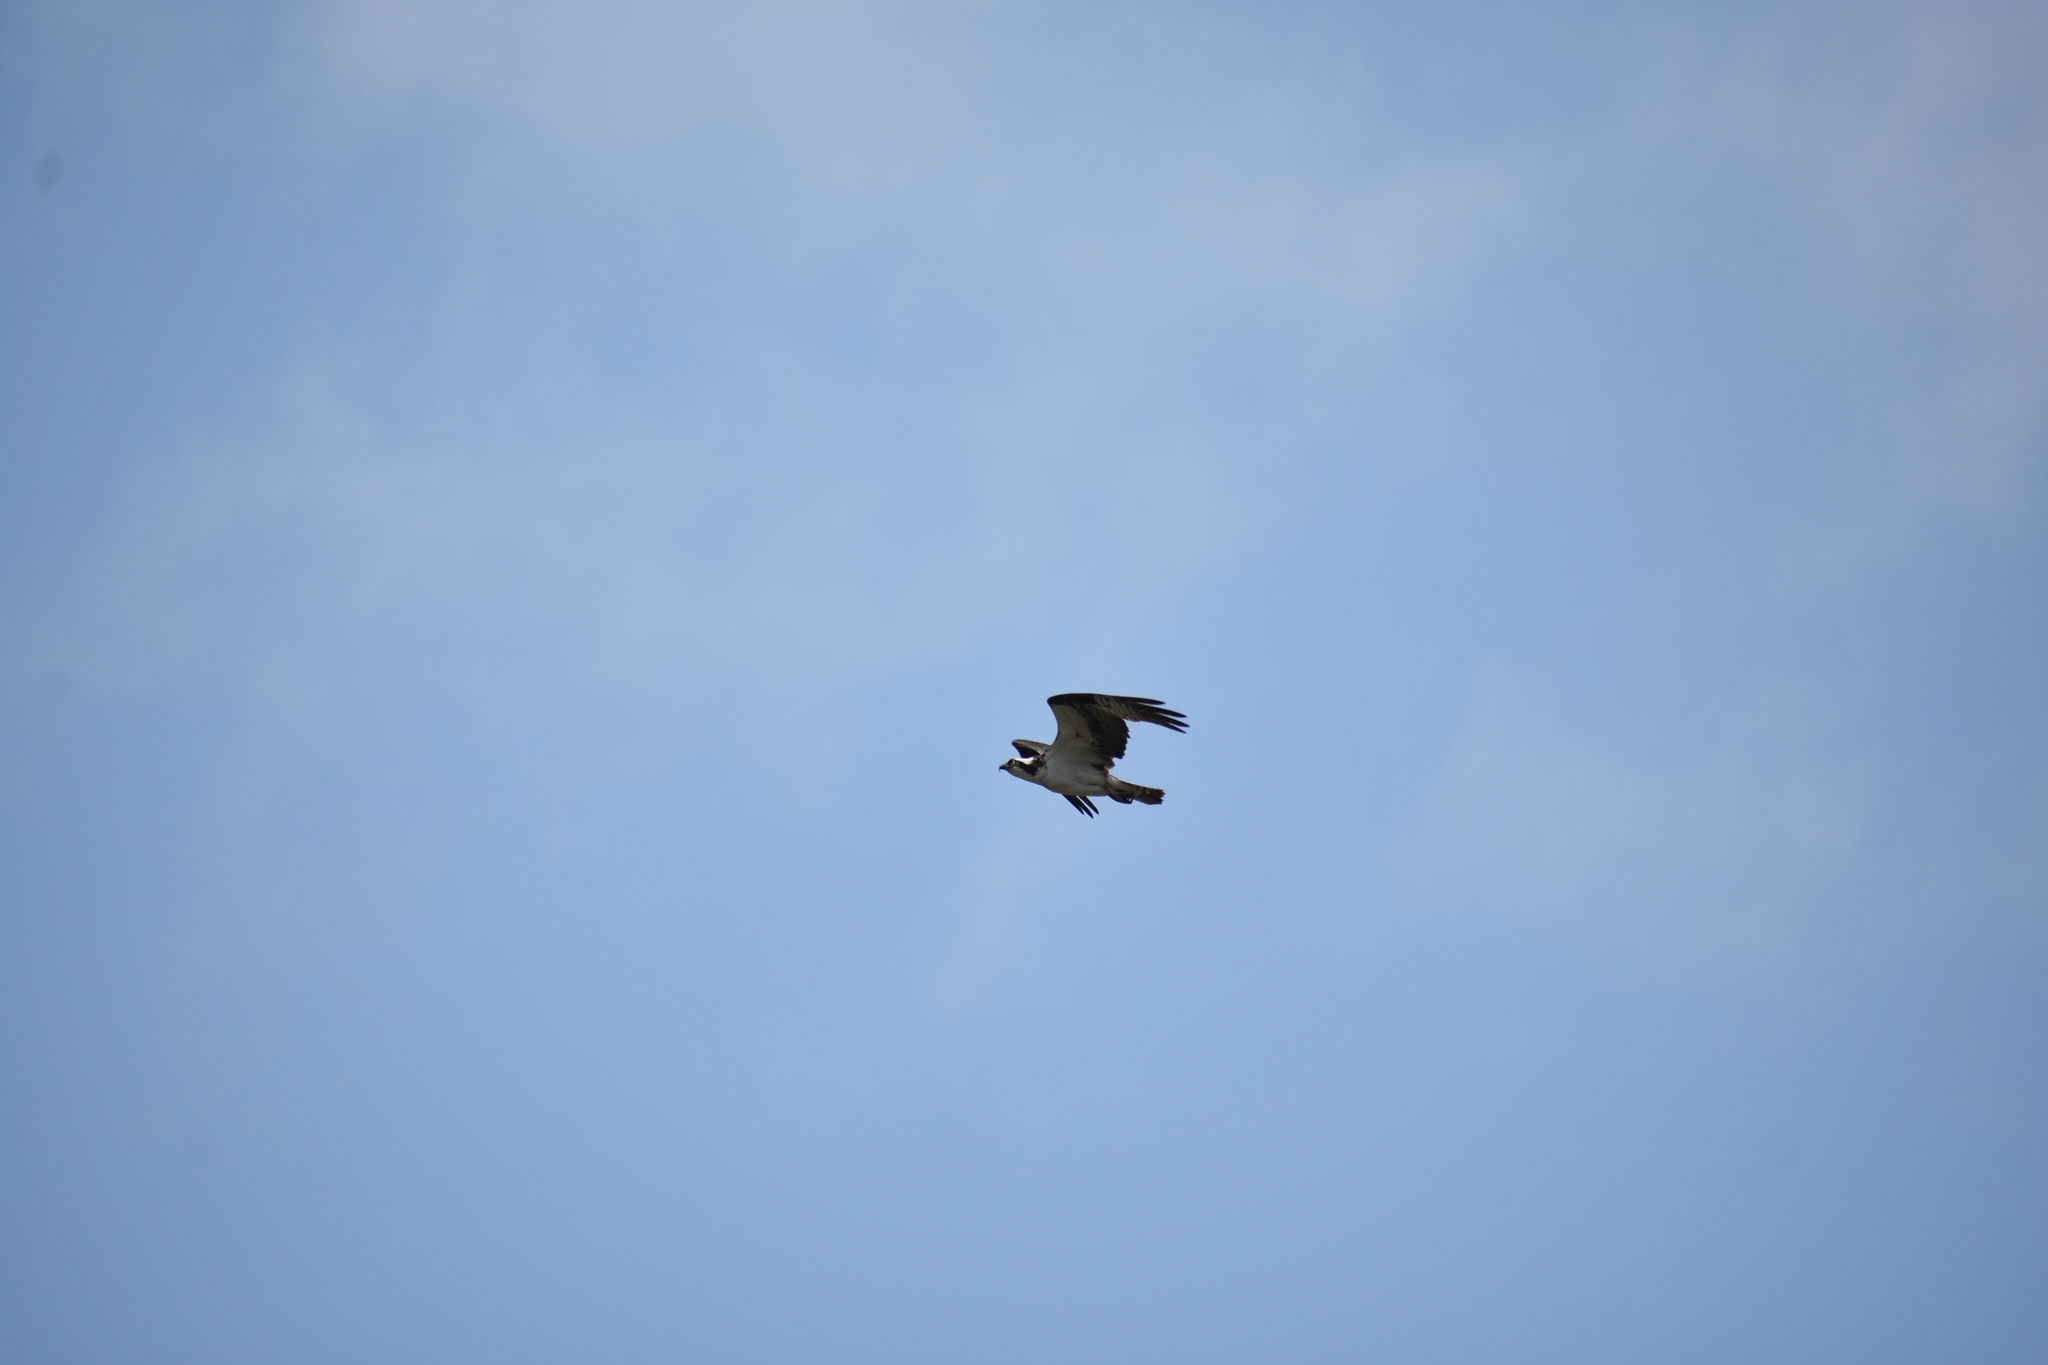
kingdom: Animalia
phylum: Chordata
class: Aves
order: Accipitriformes
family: Pandionidae
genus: Pandion
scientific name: Pandion haliaetus
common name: Osprey
